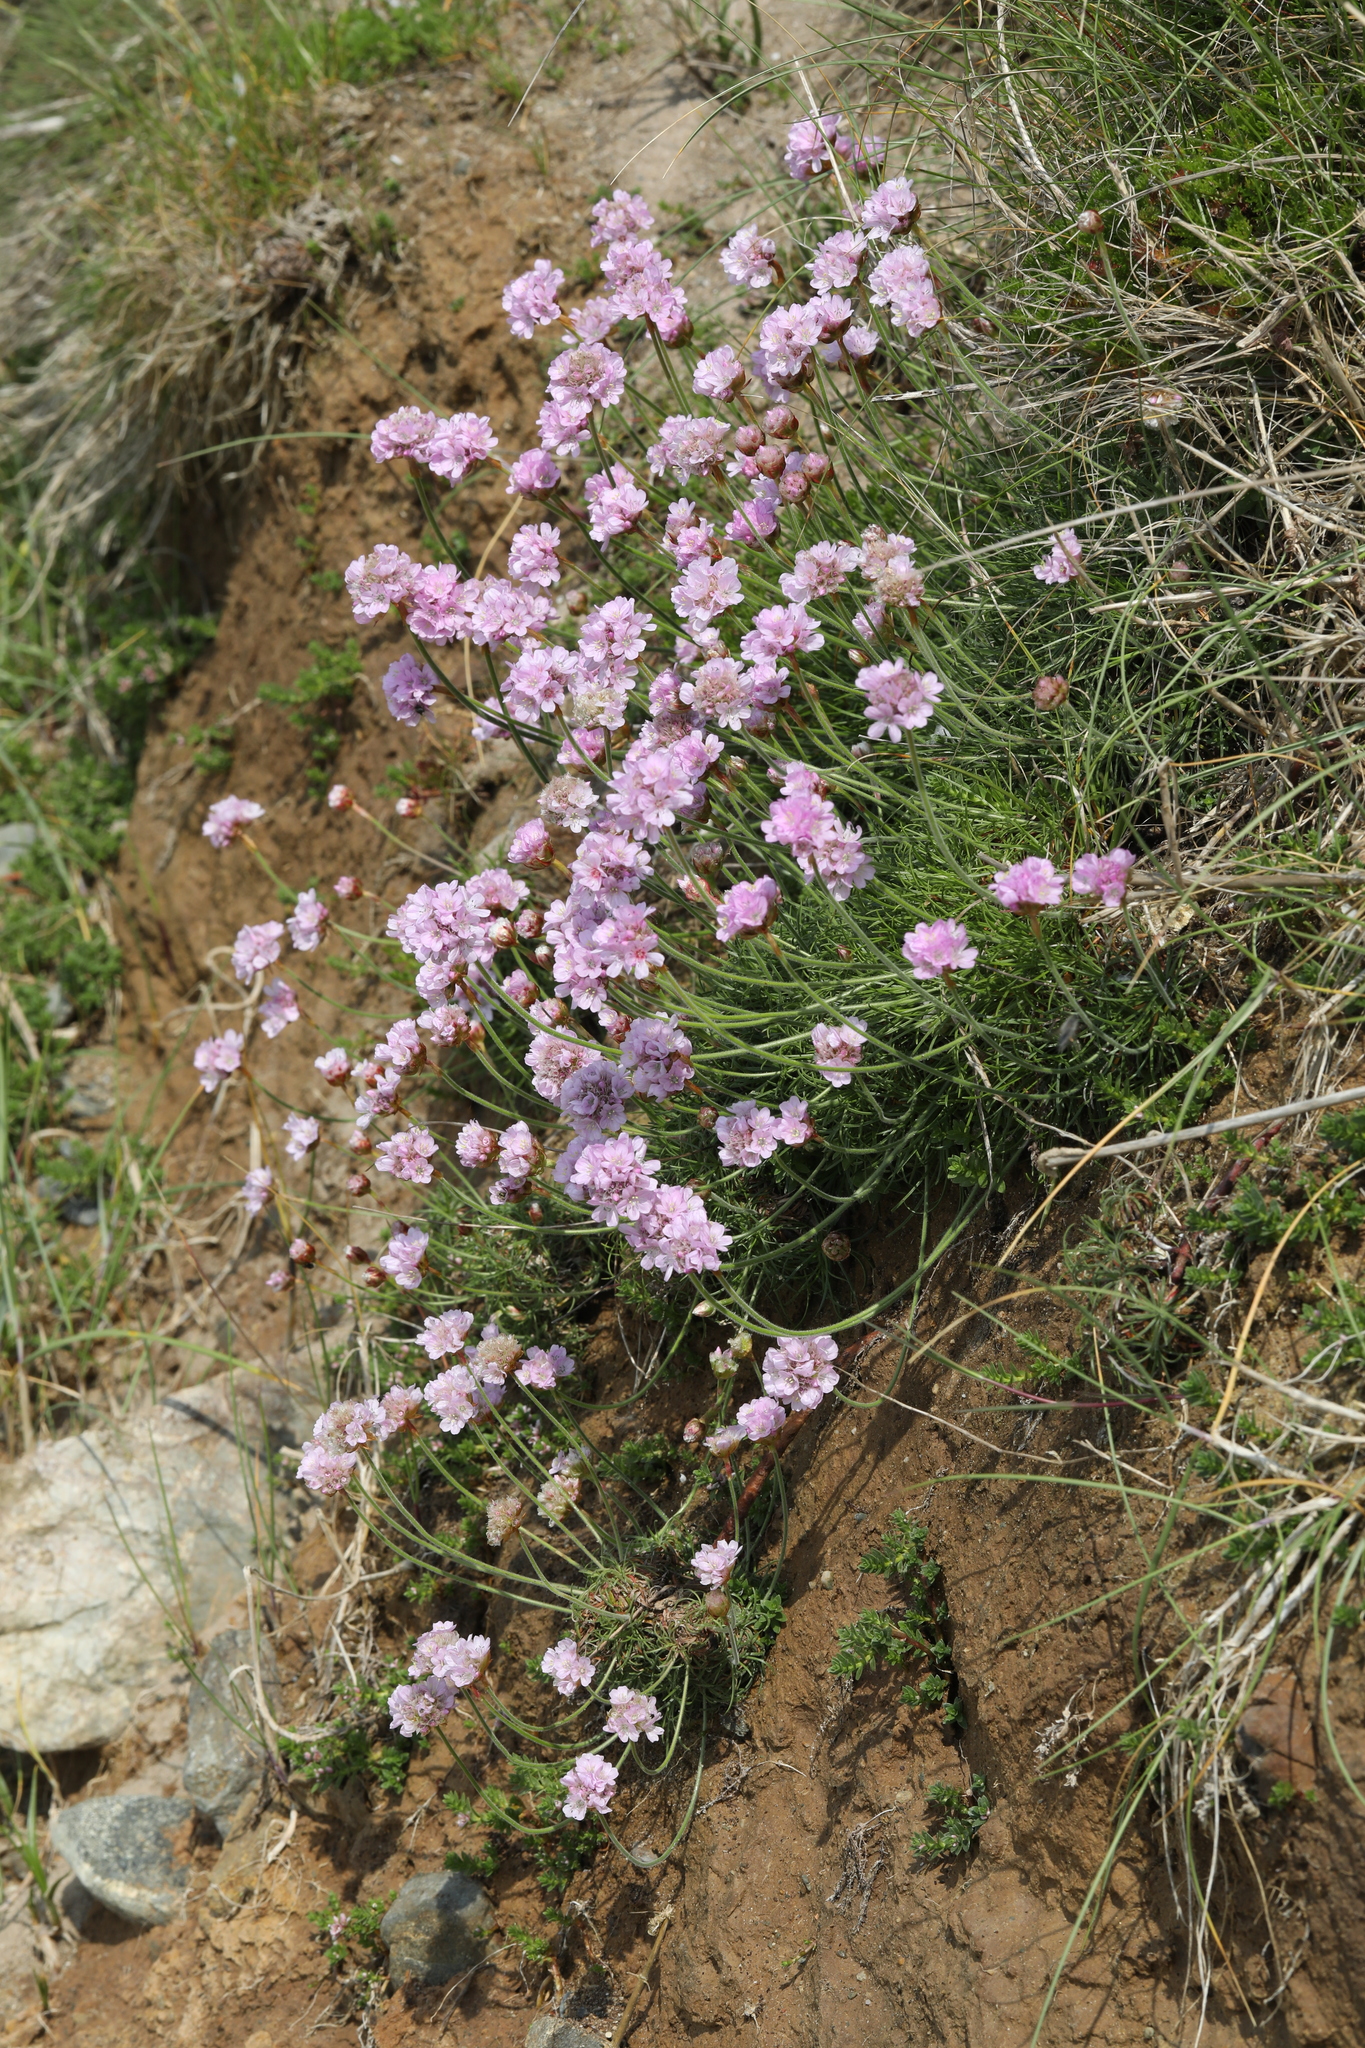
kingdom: Plantae
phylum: Tracheophyta
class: Magnoliopsida
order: Caryophyllales
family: Plumbaginaceae
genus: Armeria
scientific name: Armeria maritima
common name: Thrift
